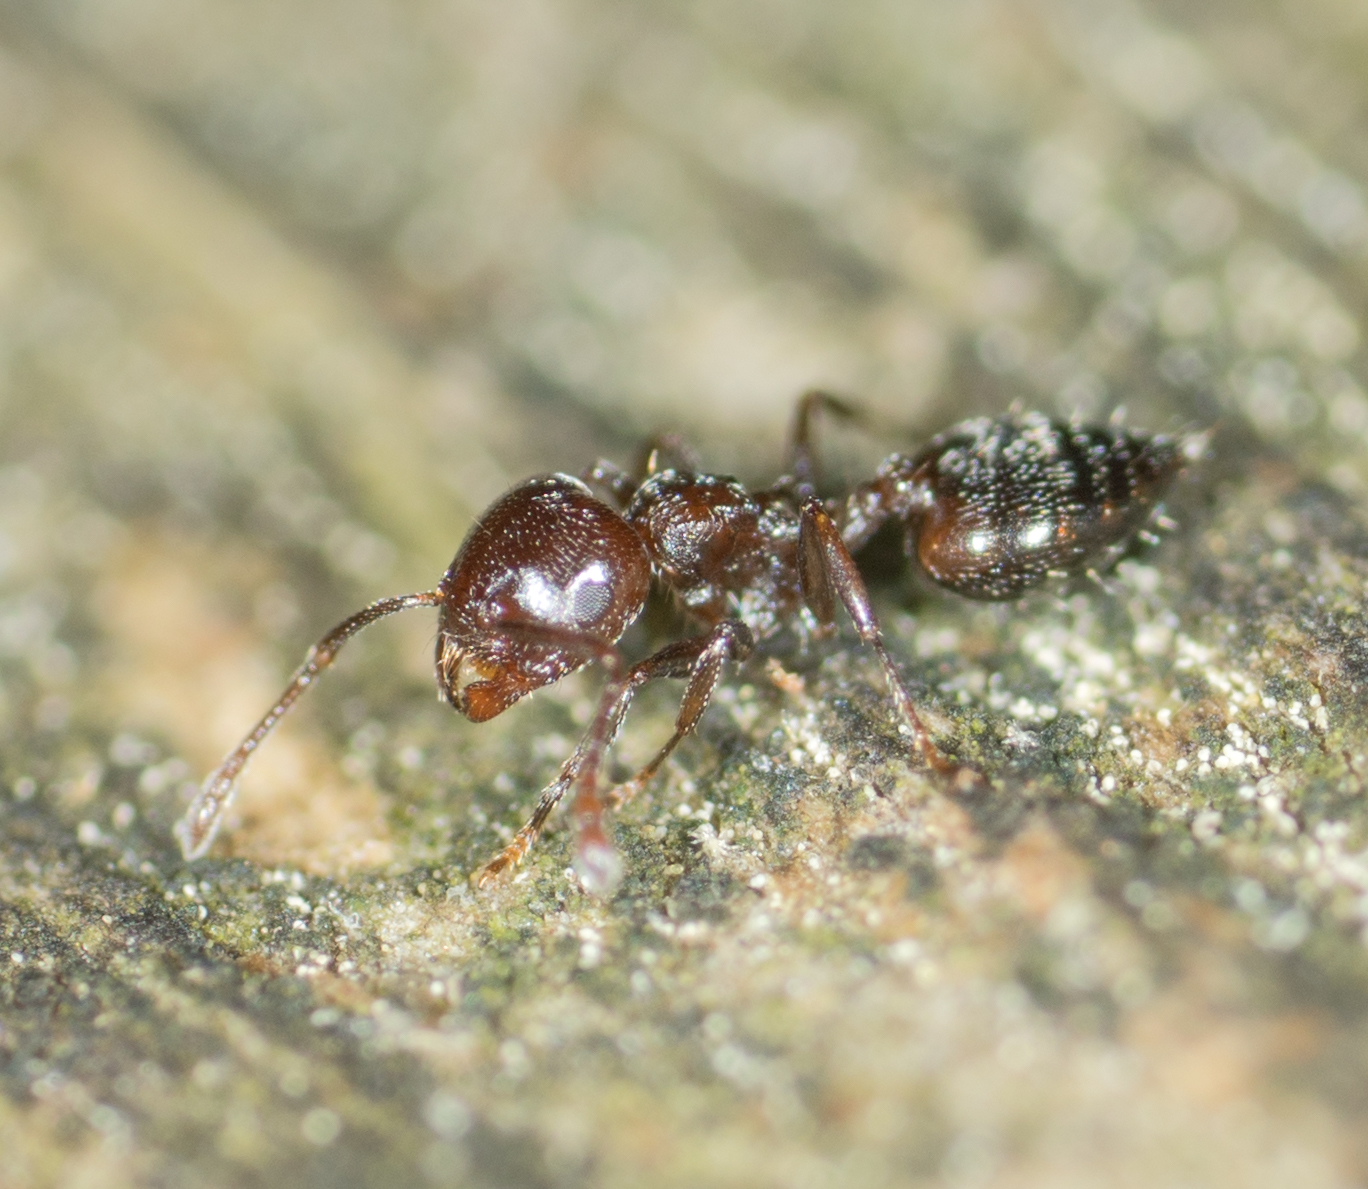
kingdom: Animalia
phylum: Arthropoda
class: Insecta
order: Hymenoptera
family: Formicidae
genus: Crematogaster
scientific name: Crematogaster ashmeadi
